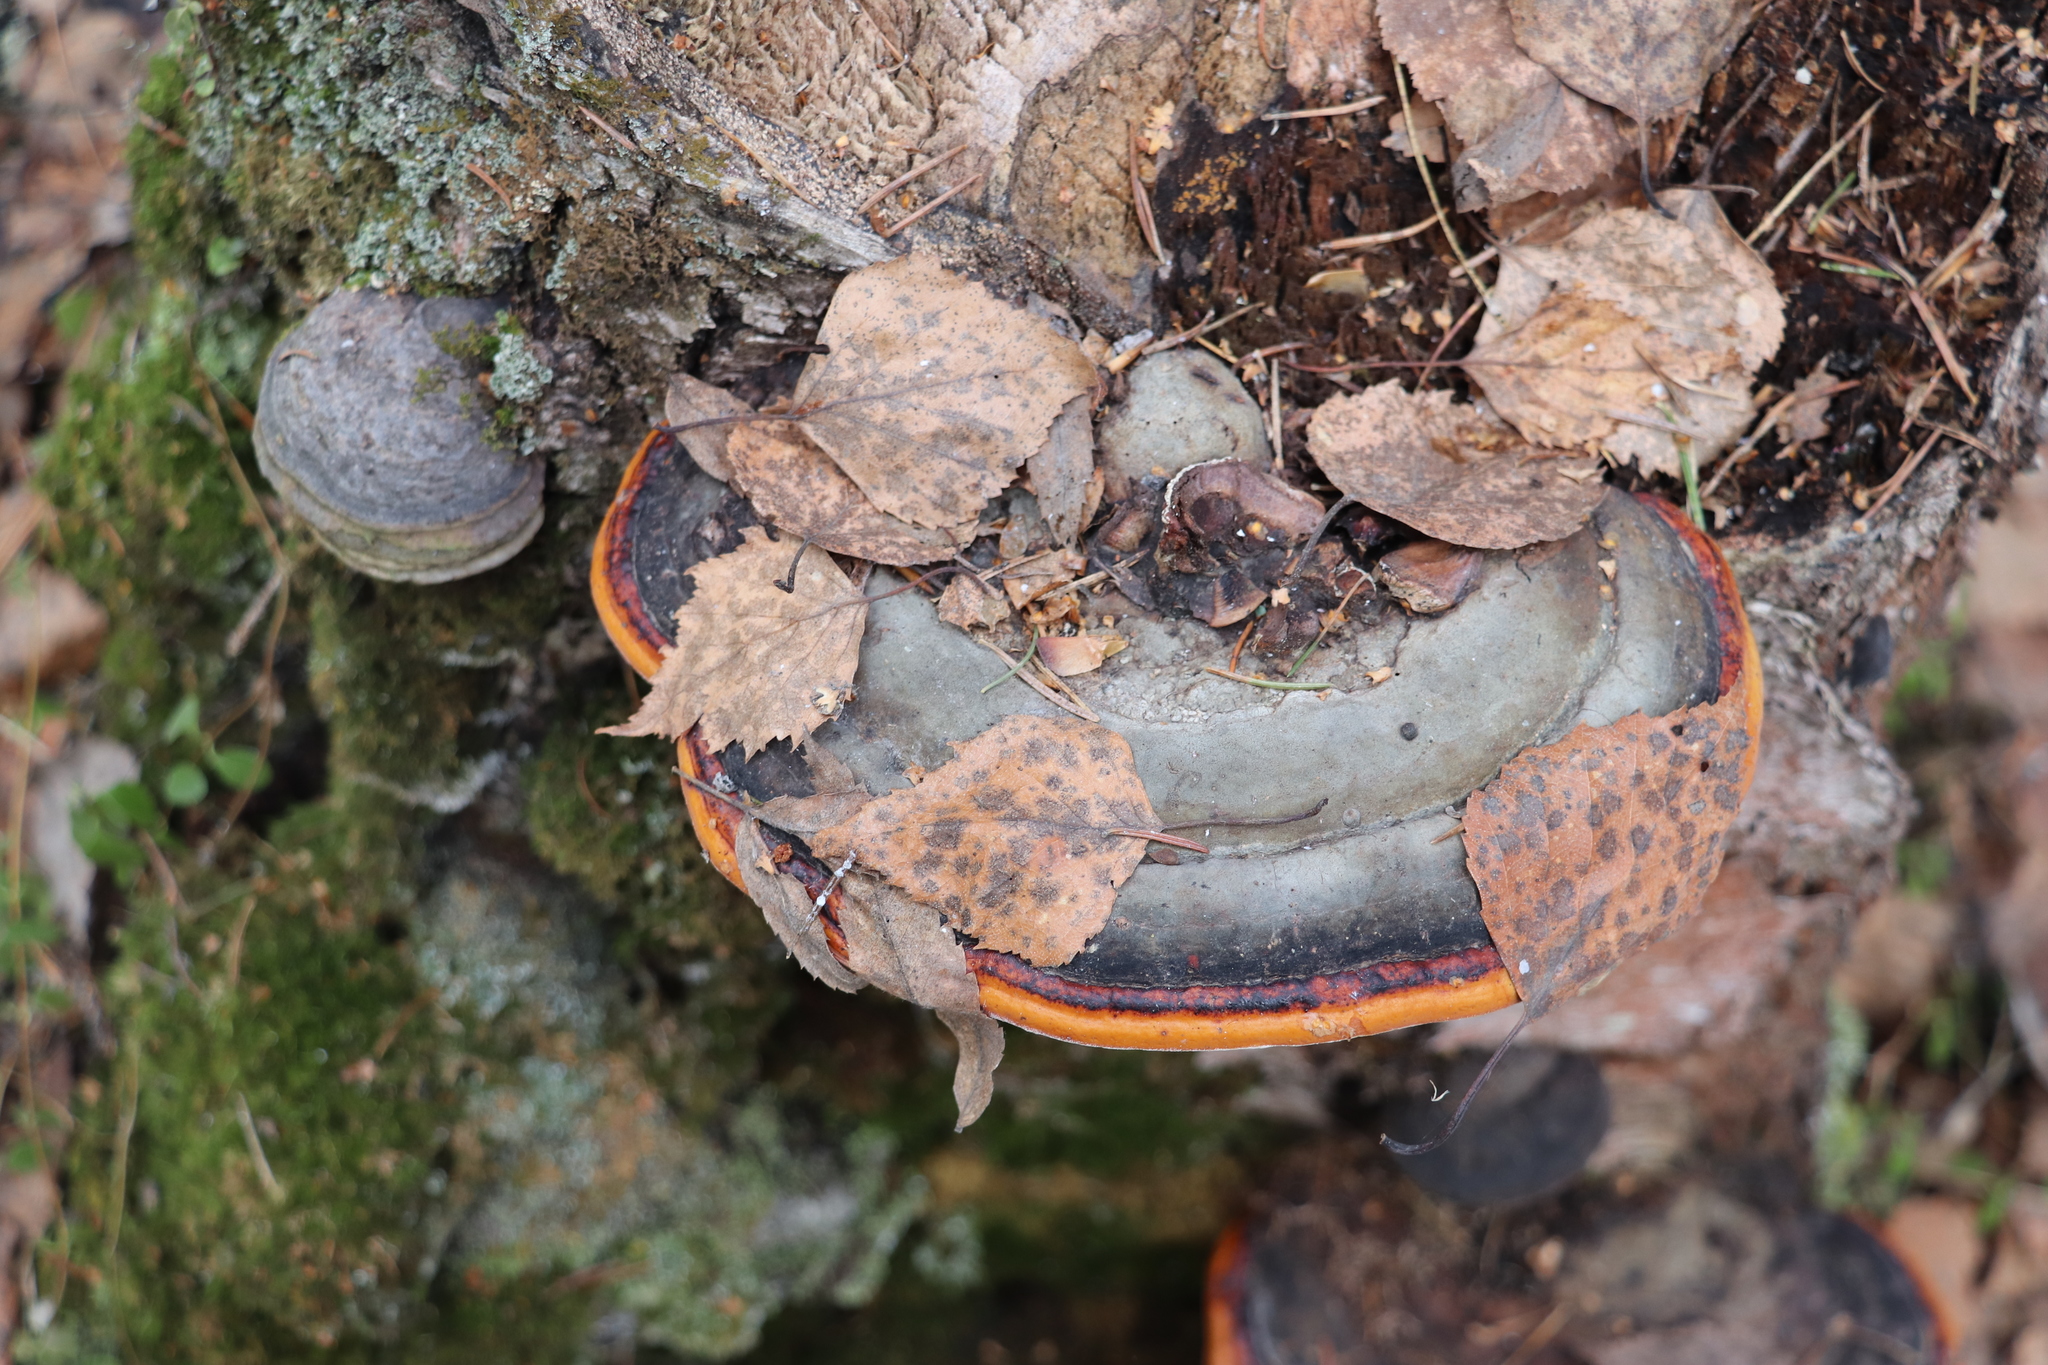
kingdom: Fungi
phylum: Basidiomycota
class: Agaricomycetes
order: Polyporales
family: Fomitopsidaceae
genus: Fomitopsis
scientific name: Fomitopsis pinicola
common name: Red-belted bracket
